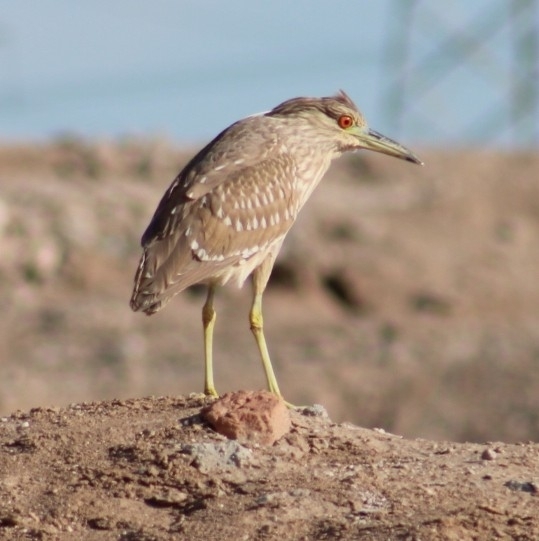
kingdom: Animalia
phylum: Chordata
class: Aves
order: Pelecaniformes
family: Ardeidae
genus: Nycticorax
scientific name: Nycticorax nycticorax
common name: Black-crowned night heron
